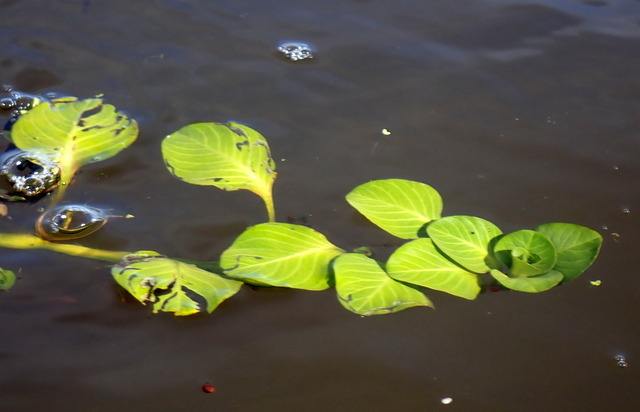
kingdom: Plantae
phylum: Tracheophyta
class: Magnoliopsida
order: Myrtales
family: Onagraceae
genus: Ludwigia
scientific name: Ludwigia peploides
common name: Floating primrose-willow
